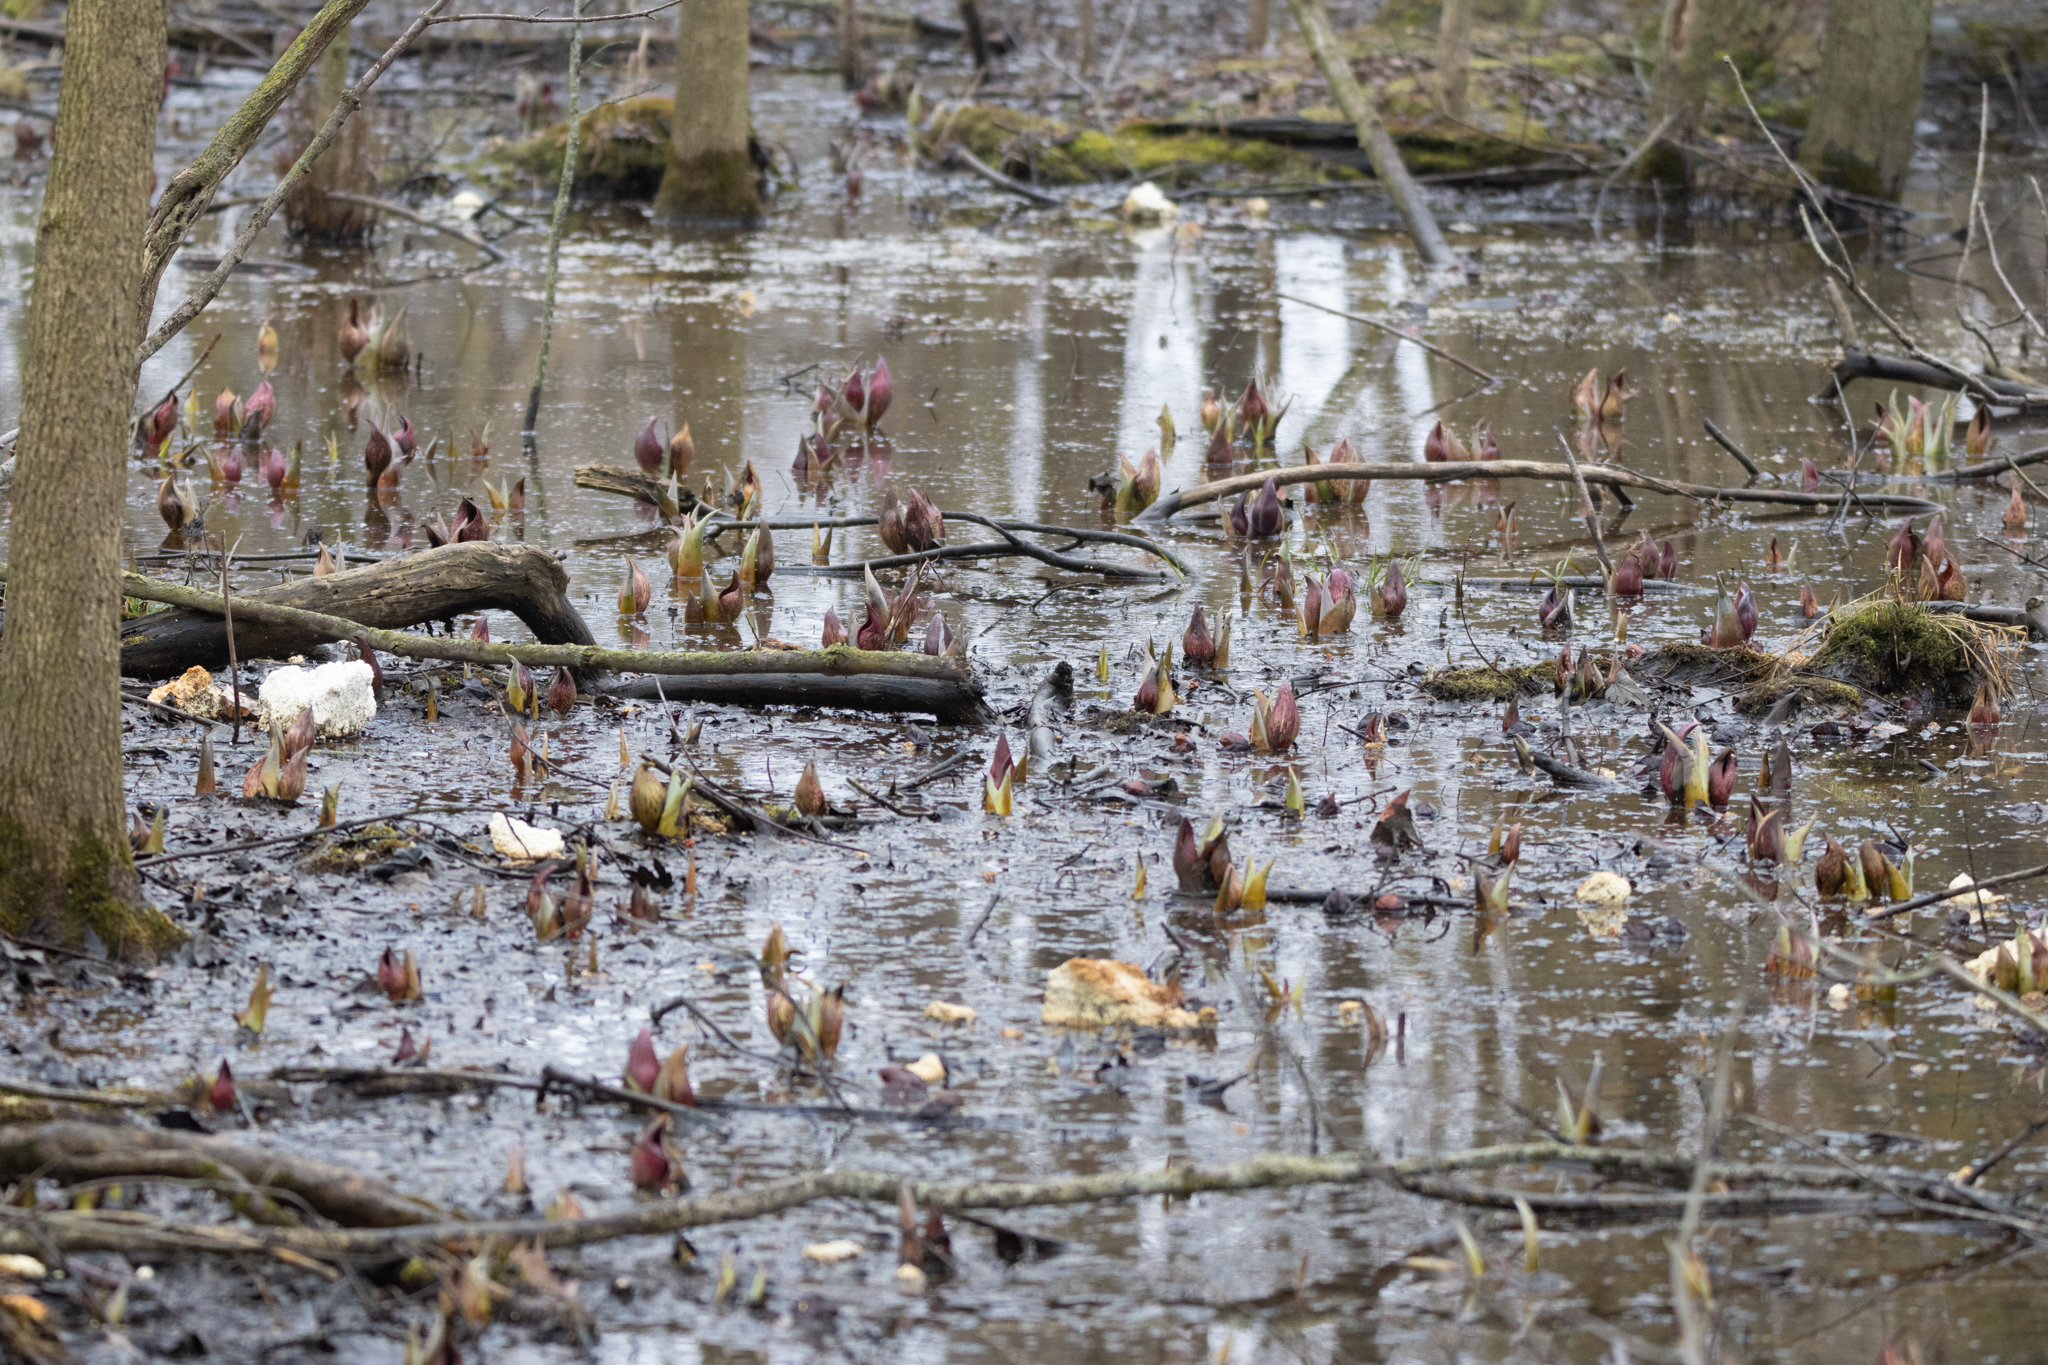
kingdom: Plantae
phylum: Tracheophyta
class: Liliopsida
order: Alismatales
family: Araceae
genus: Symplocarpus
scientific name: Symplocarpus foetidus
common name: Eastern skunk cabbage
